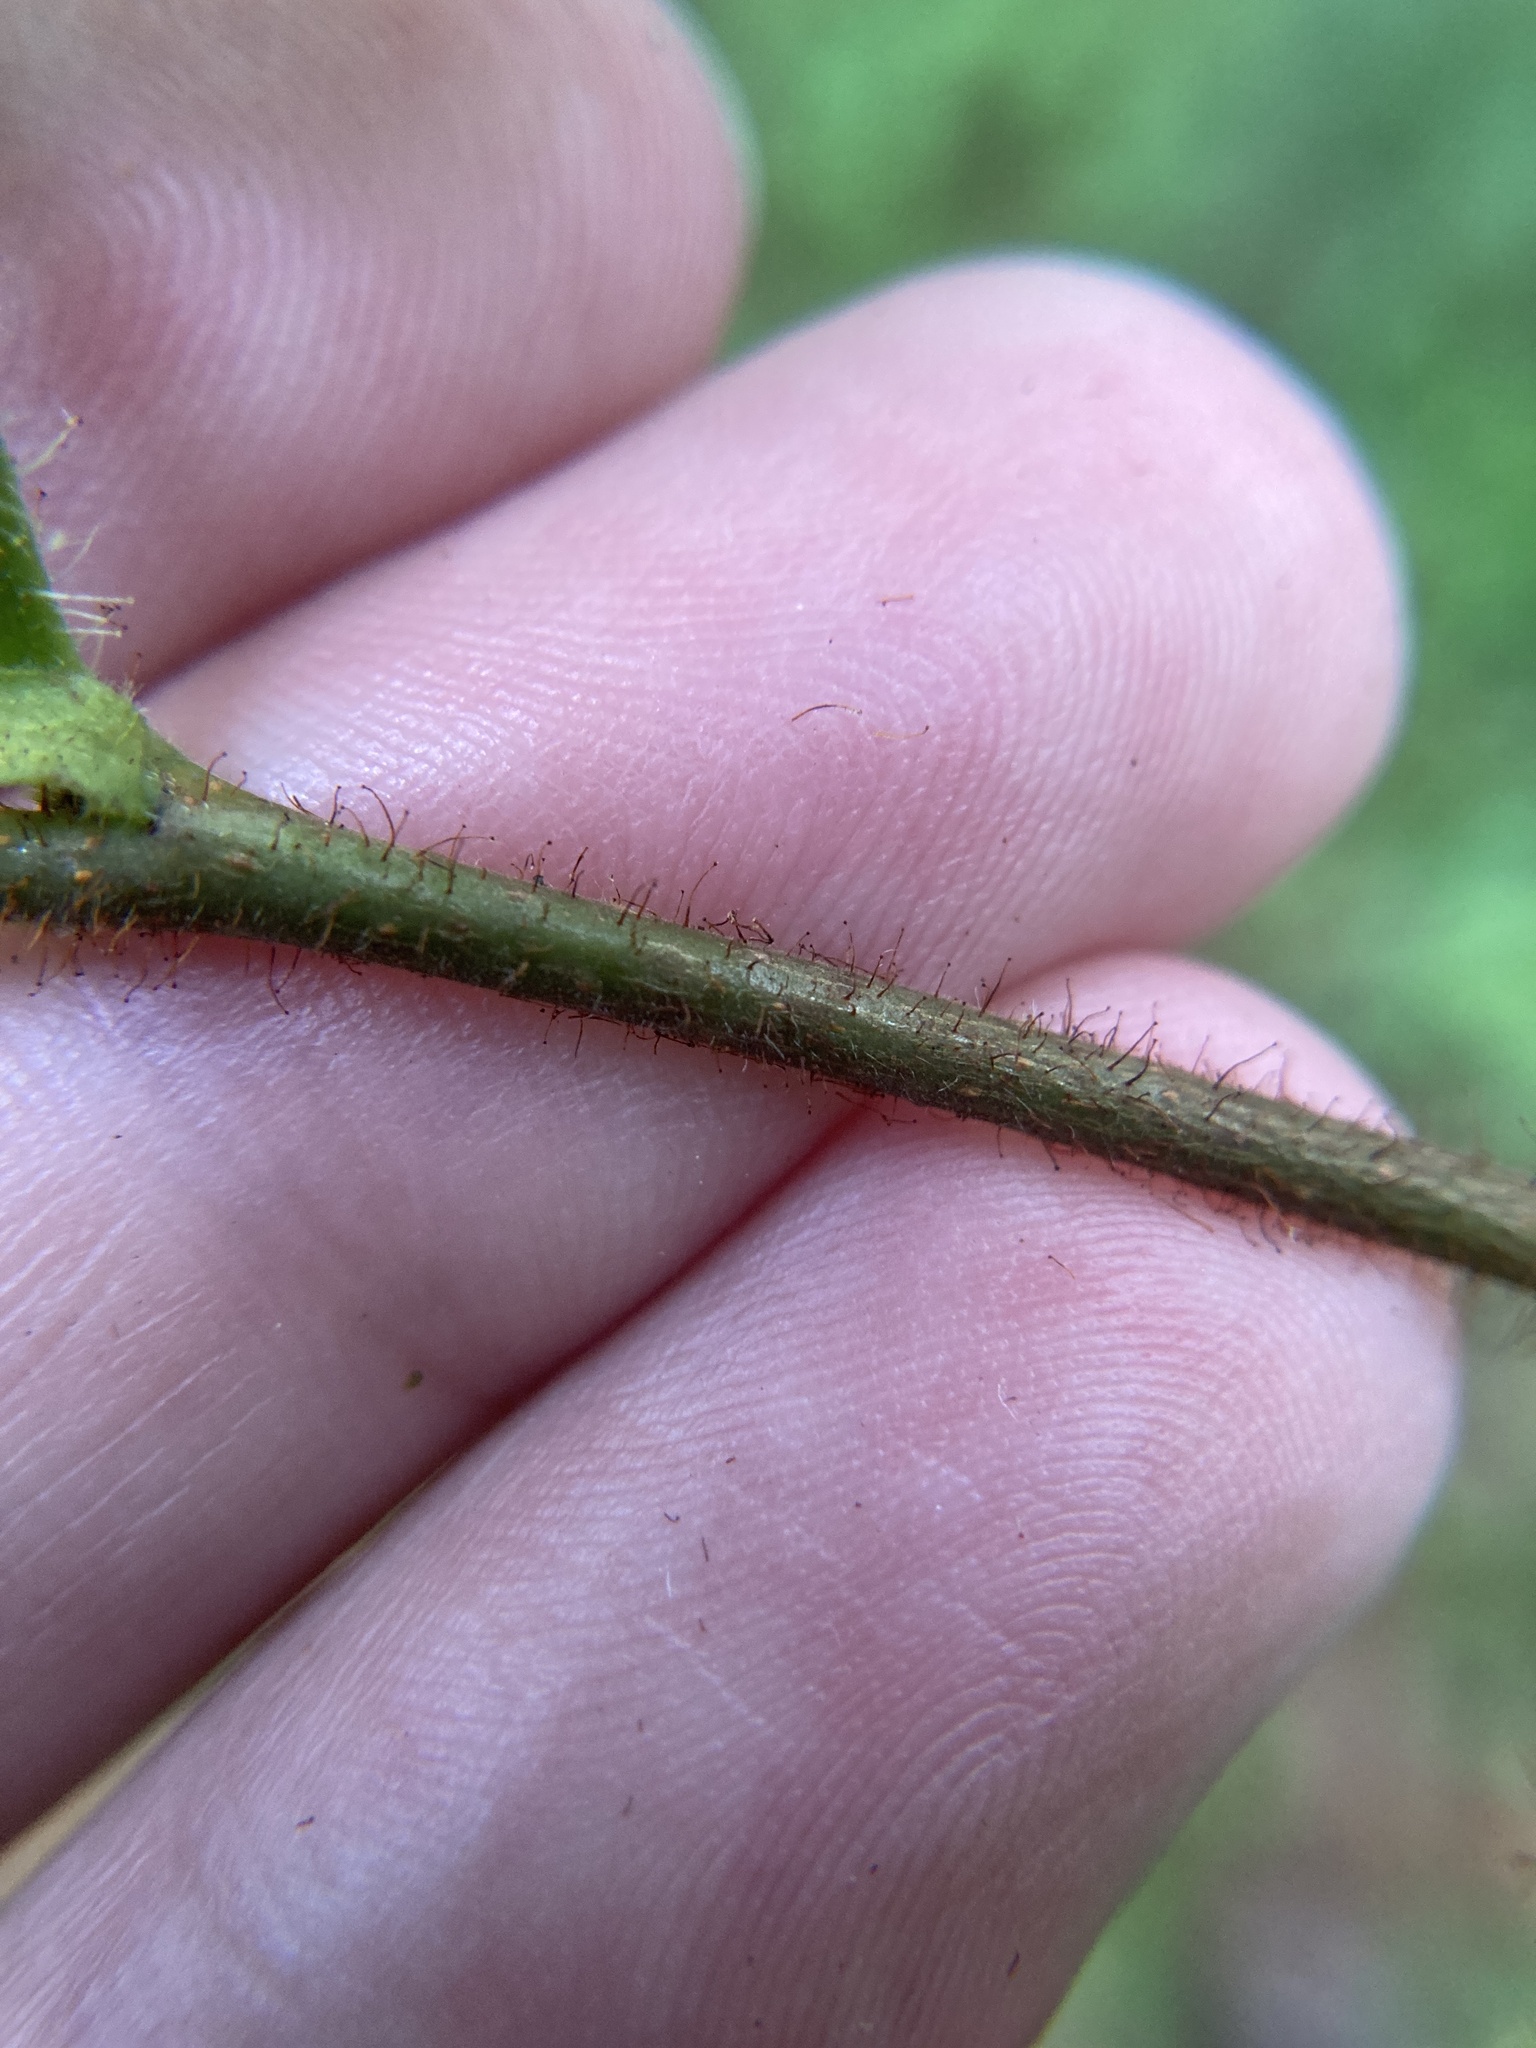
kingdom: Plantae
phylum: Tracheophyta
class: Magnoliopsida
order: Fagales
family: Betulaceae
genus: Corylus
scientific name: Corylus americana
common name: American hazel
